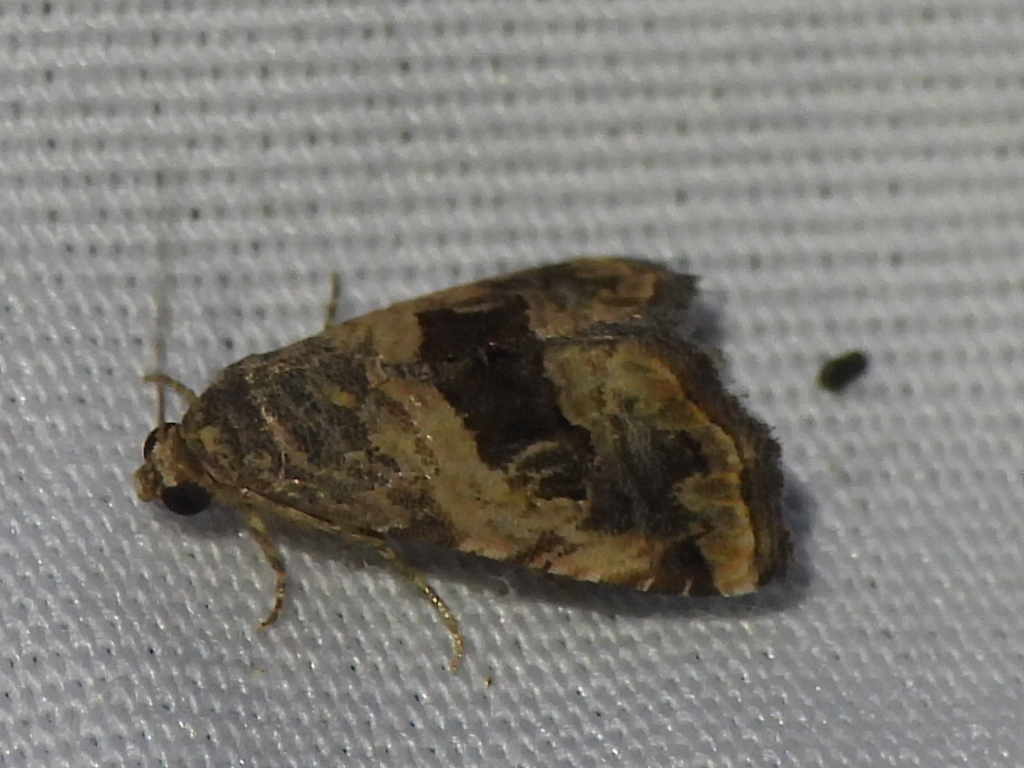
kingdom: Animalia
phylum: Arthropoda
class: Insecta
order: Lepidoptera
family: Noctuidae
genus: Tripudia
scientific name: Tripudia quadrifera
